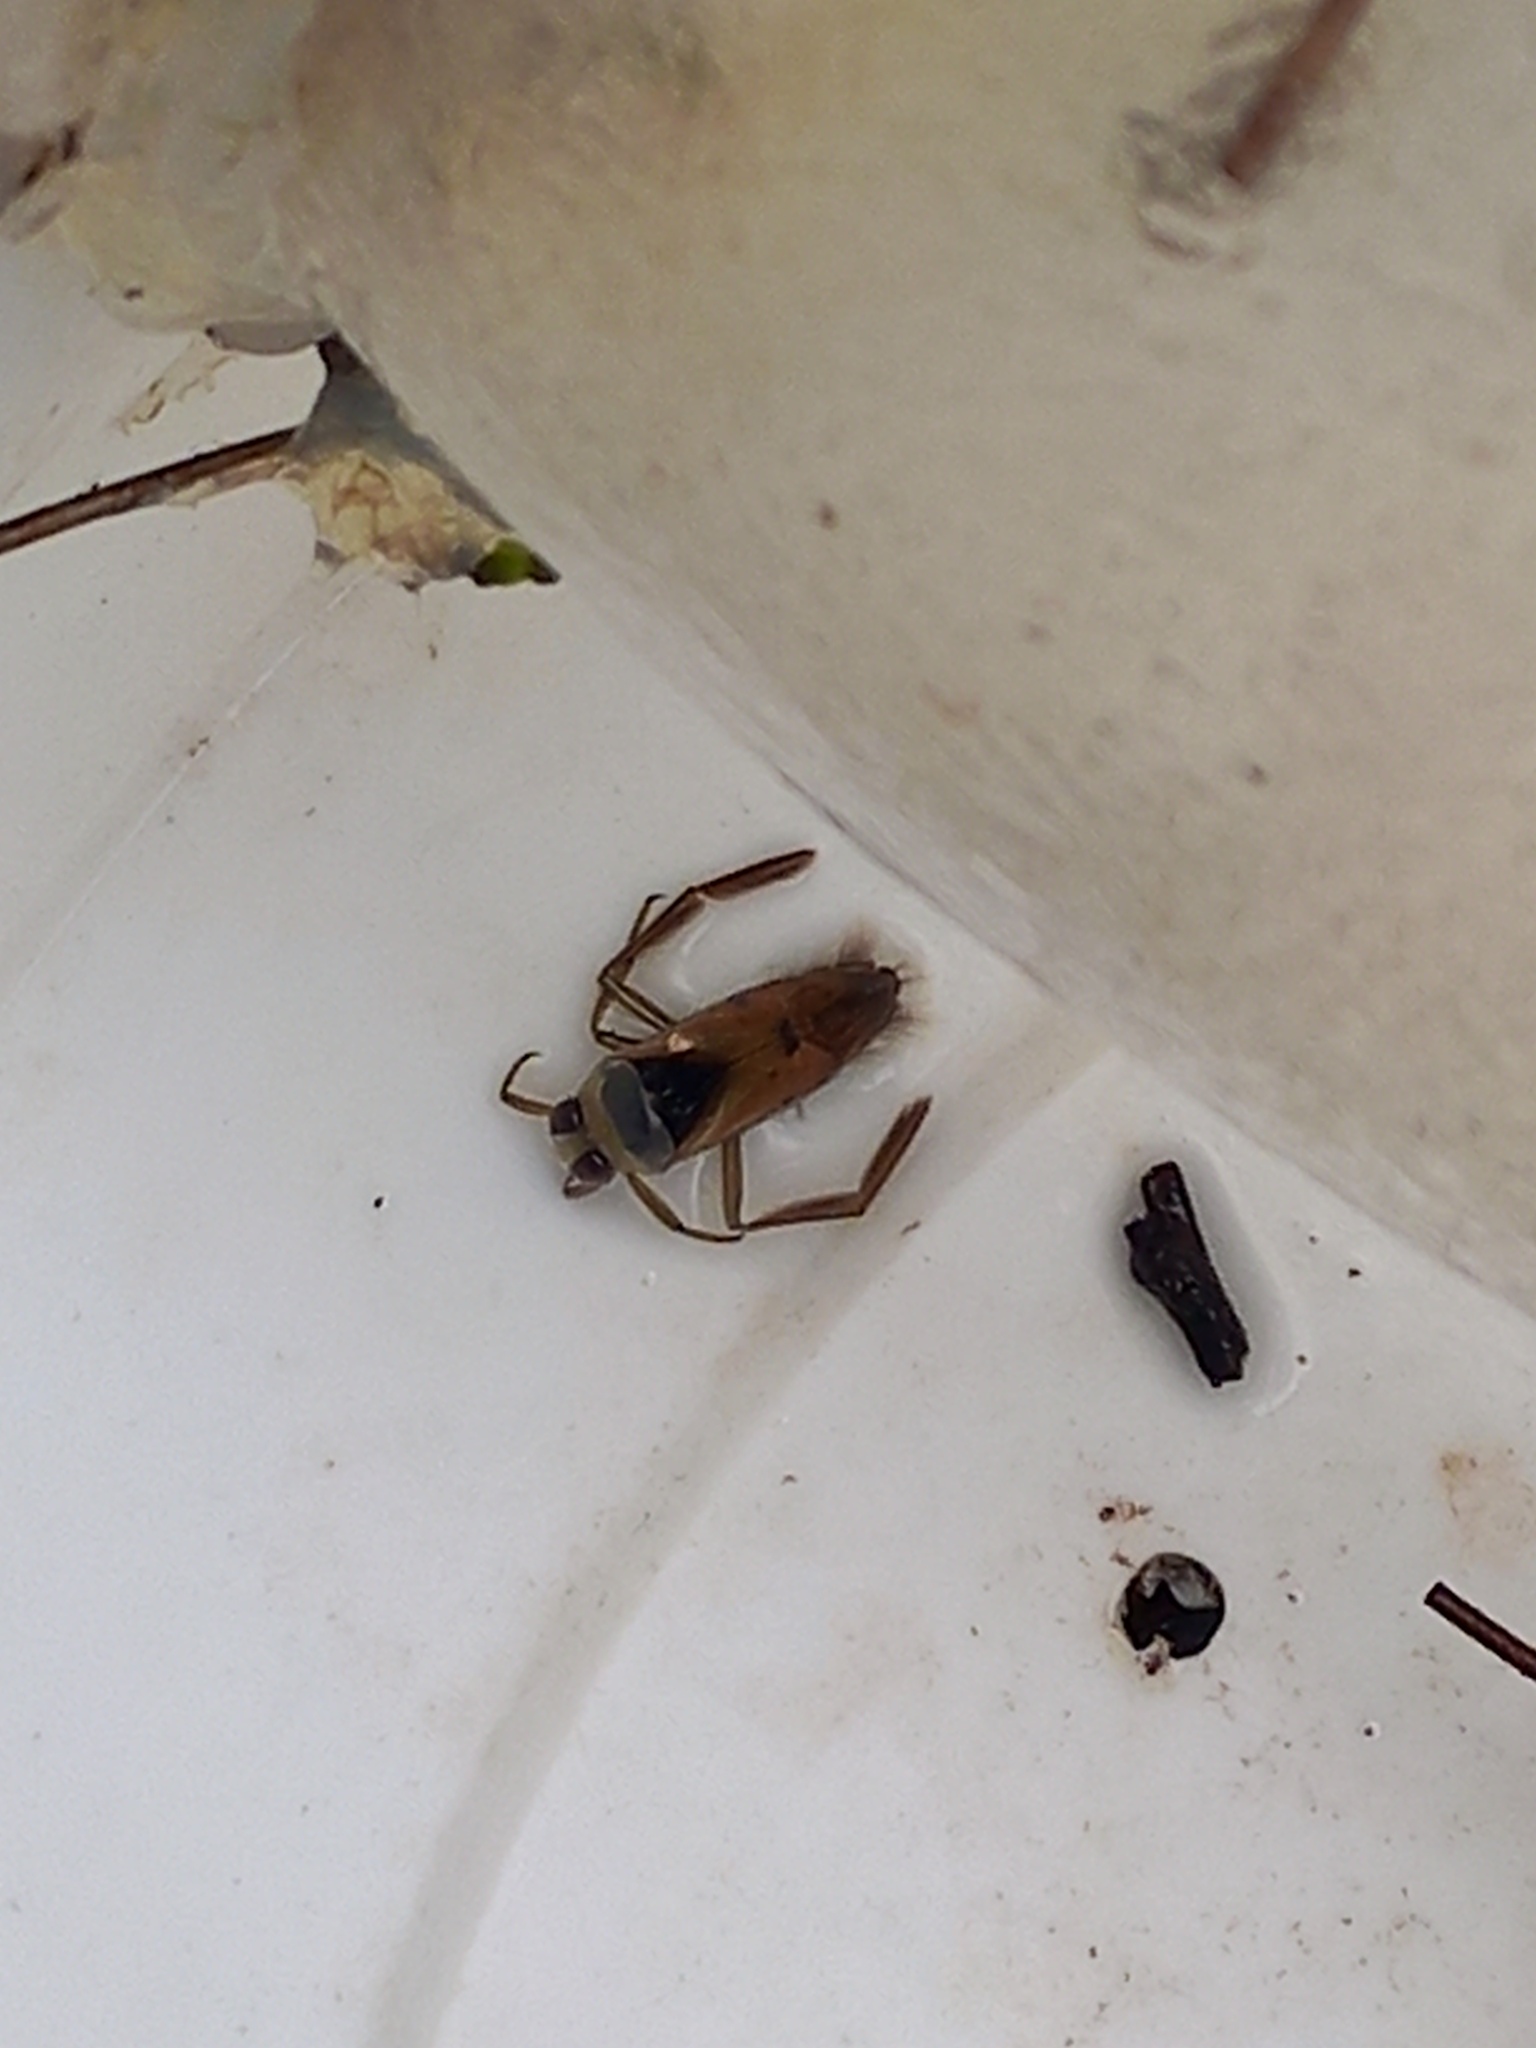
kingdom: Animalia
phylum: Arthropoda
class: Insecta
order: Hemiptera
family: Notonectidae
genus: Notonecta
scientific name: Notonecta glauca
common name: Common water-boatman
